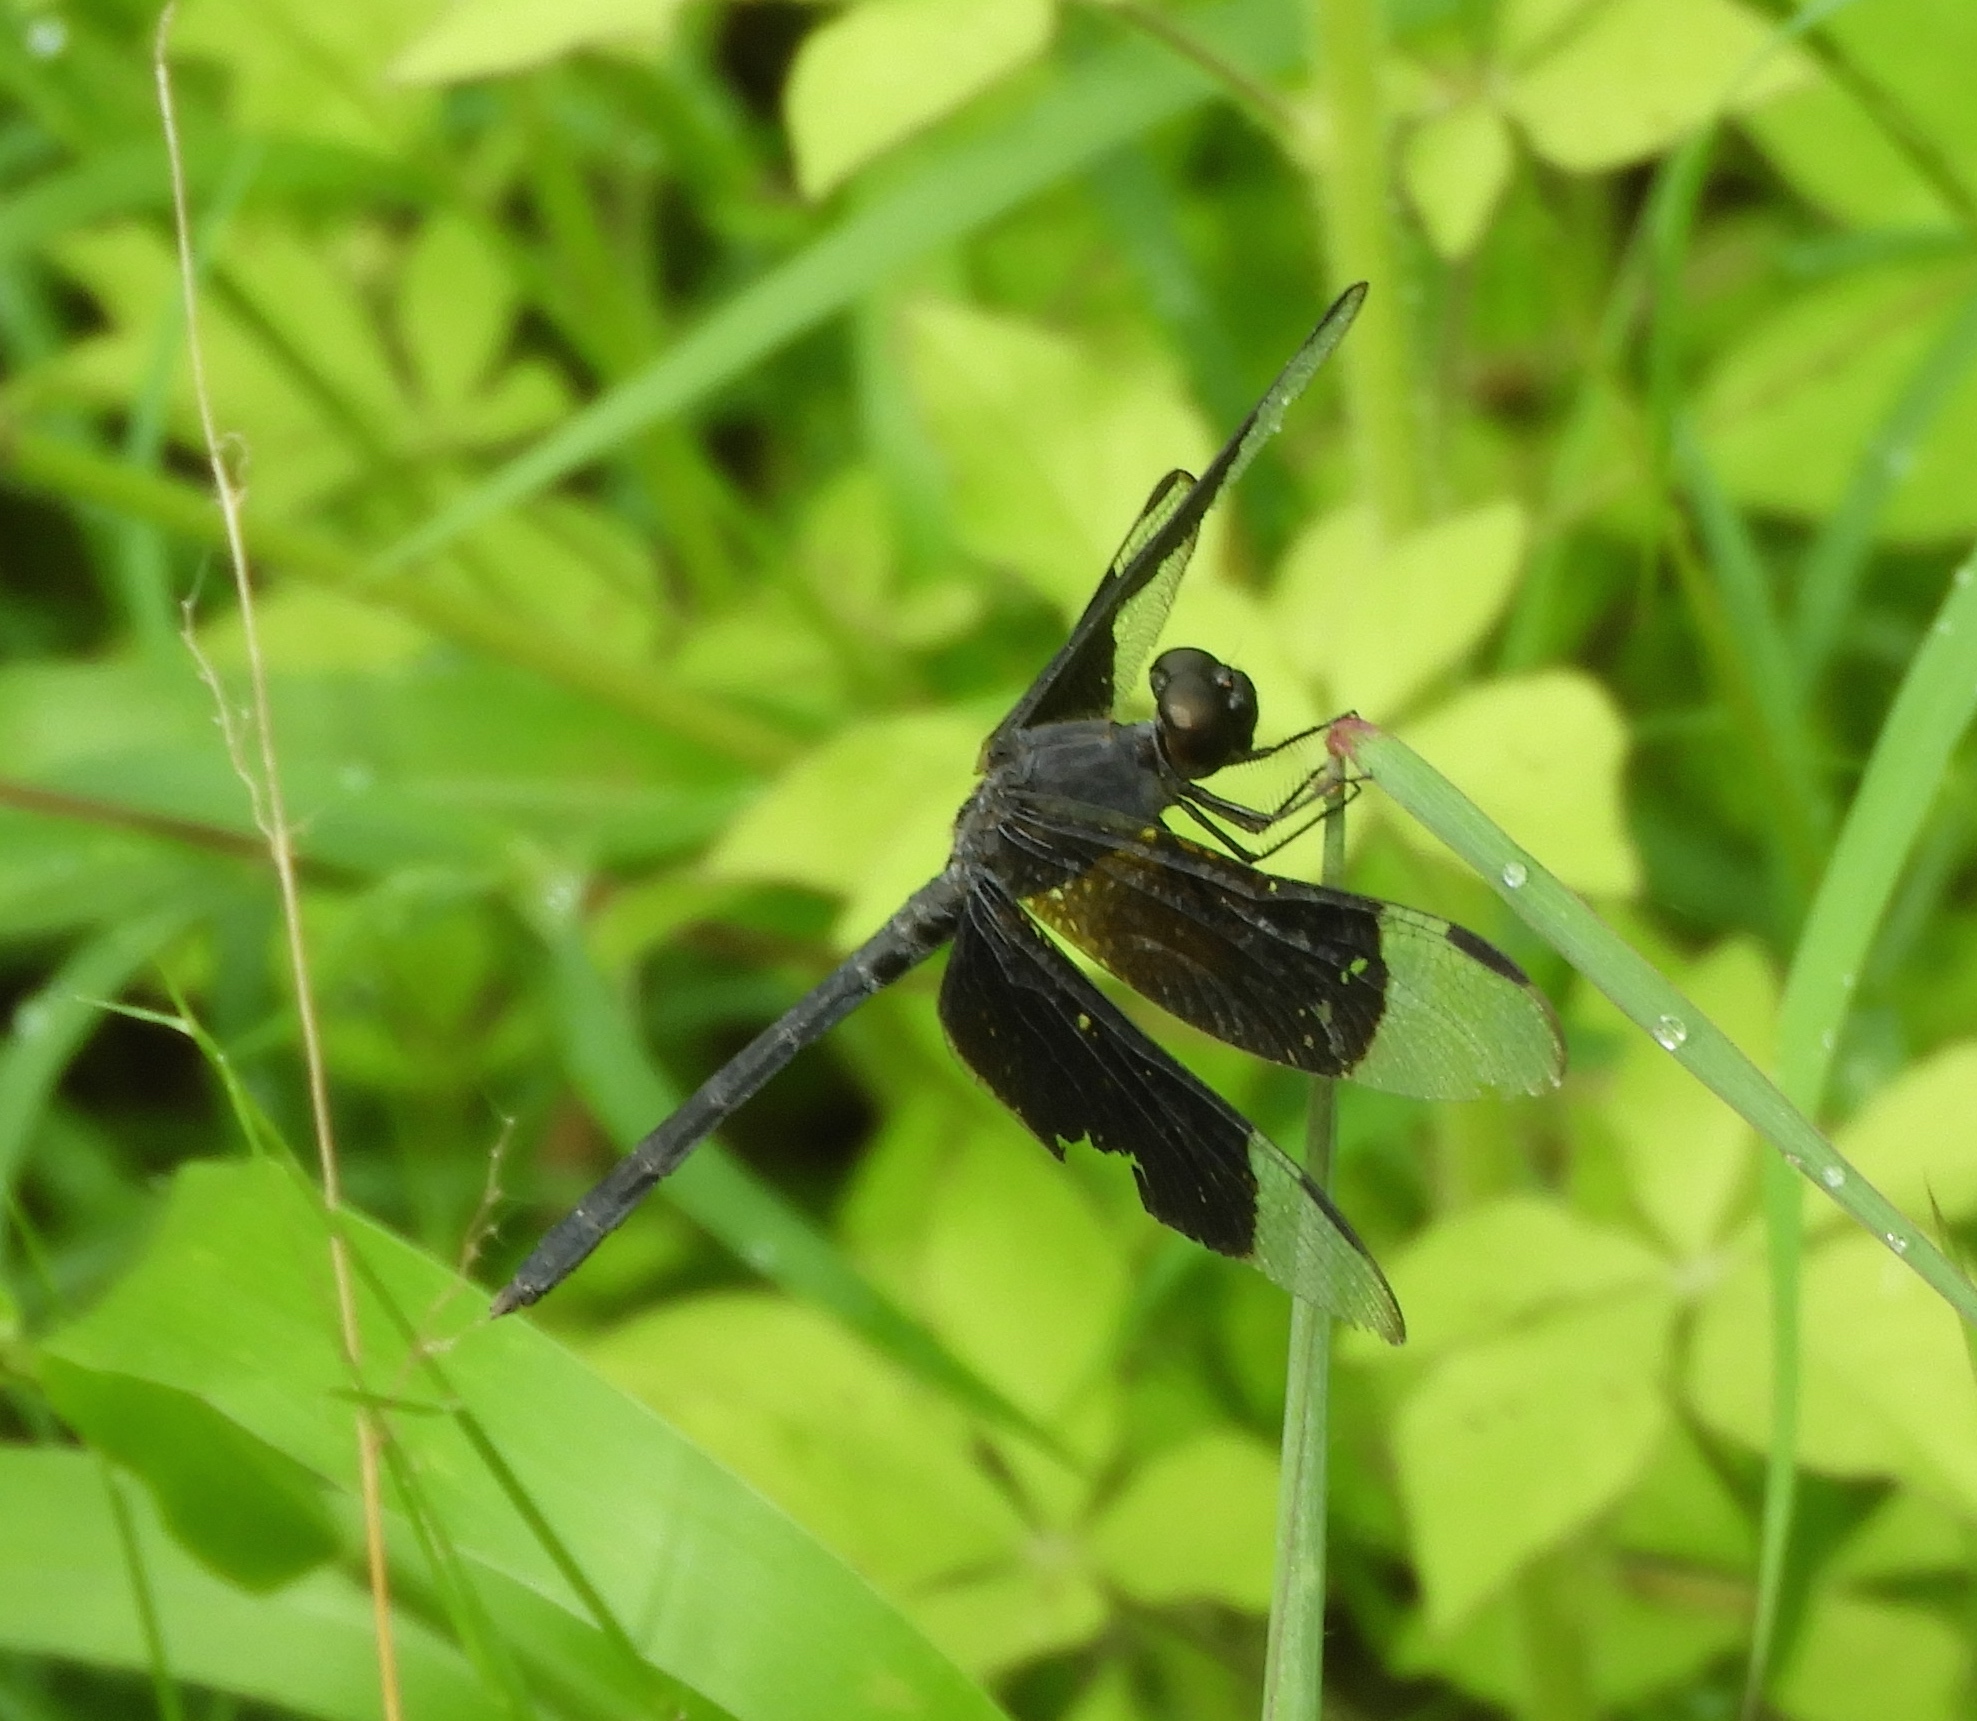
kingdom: Animalia
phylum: Arthropoda
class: Insecta
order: Odonata
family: Libellulidae
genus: Erythrodiplax
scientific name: Erythrodiplax funerea
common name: Black-winged dragonlet
